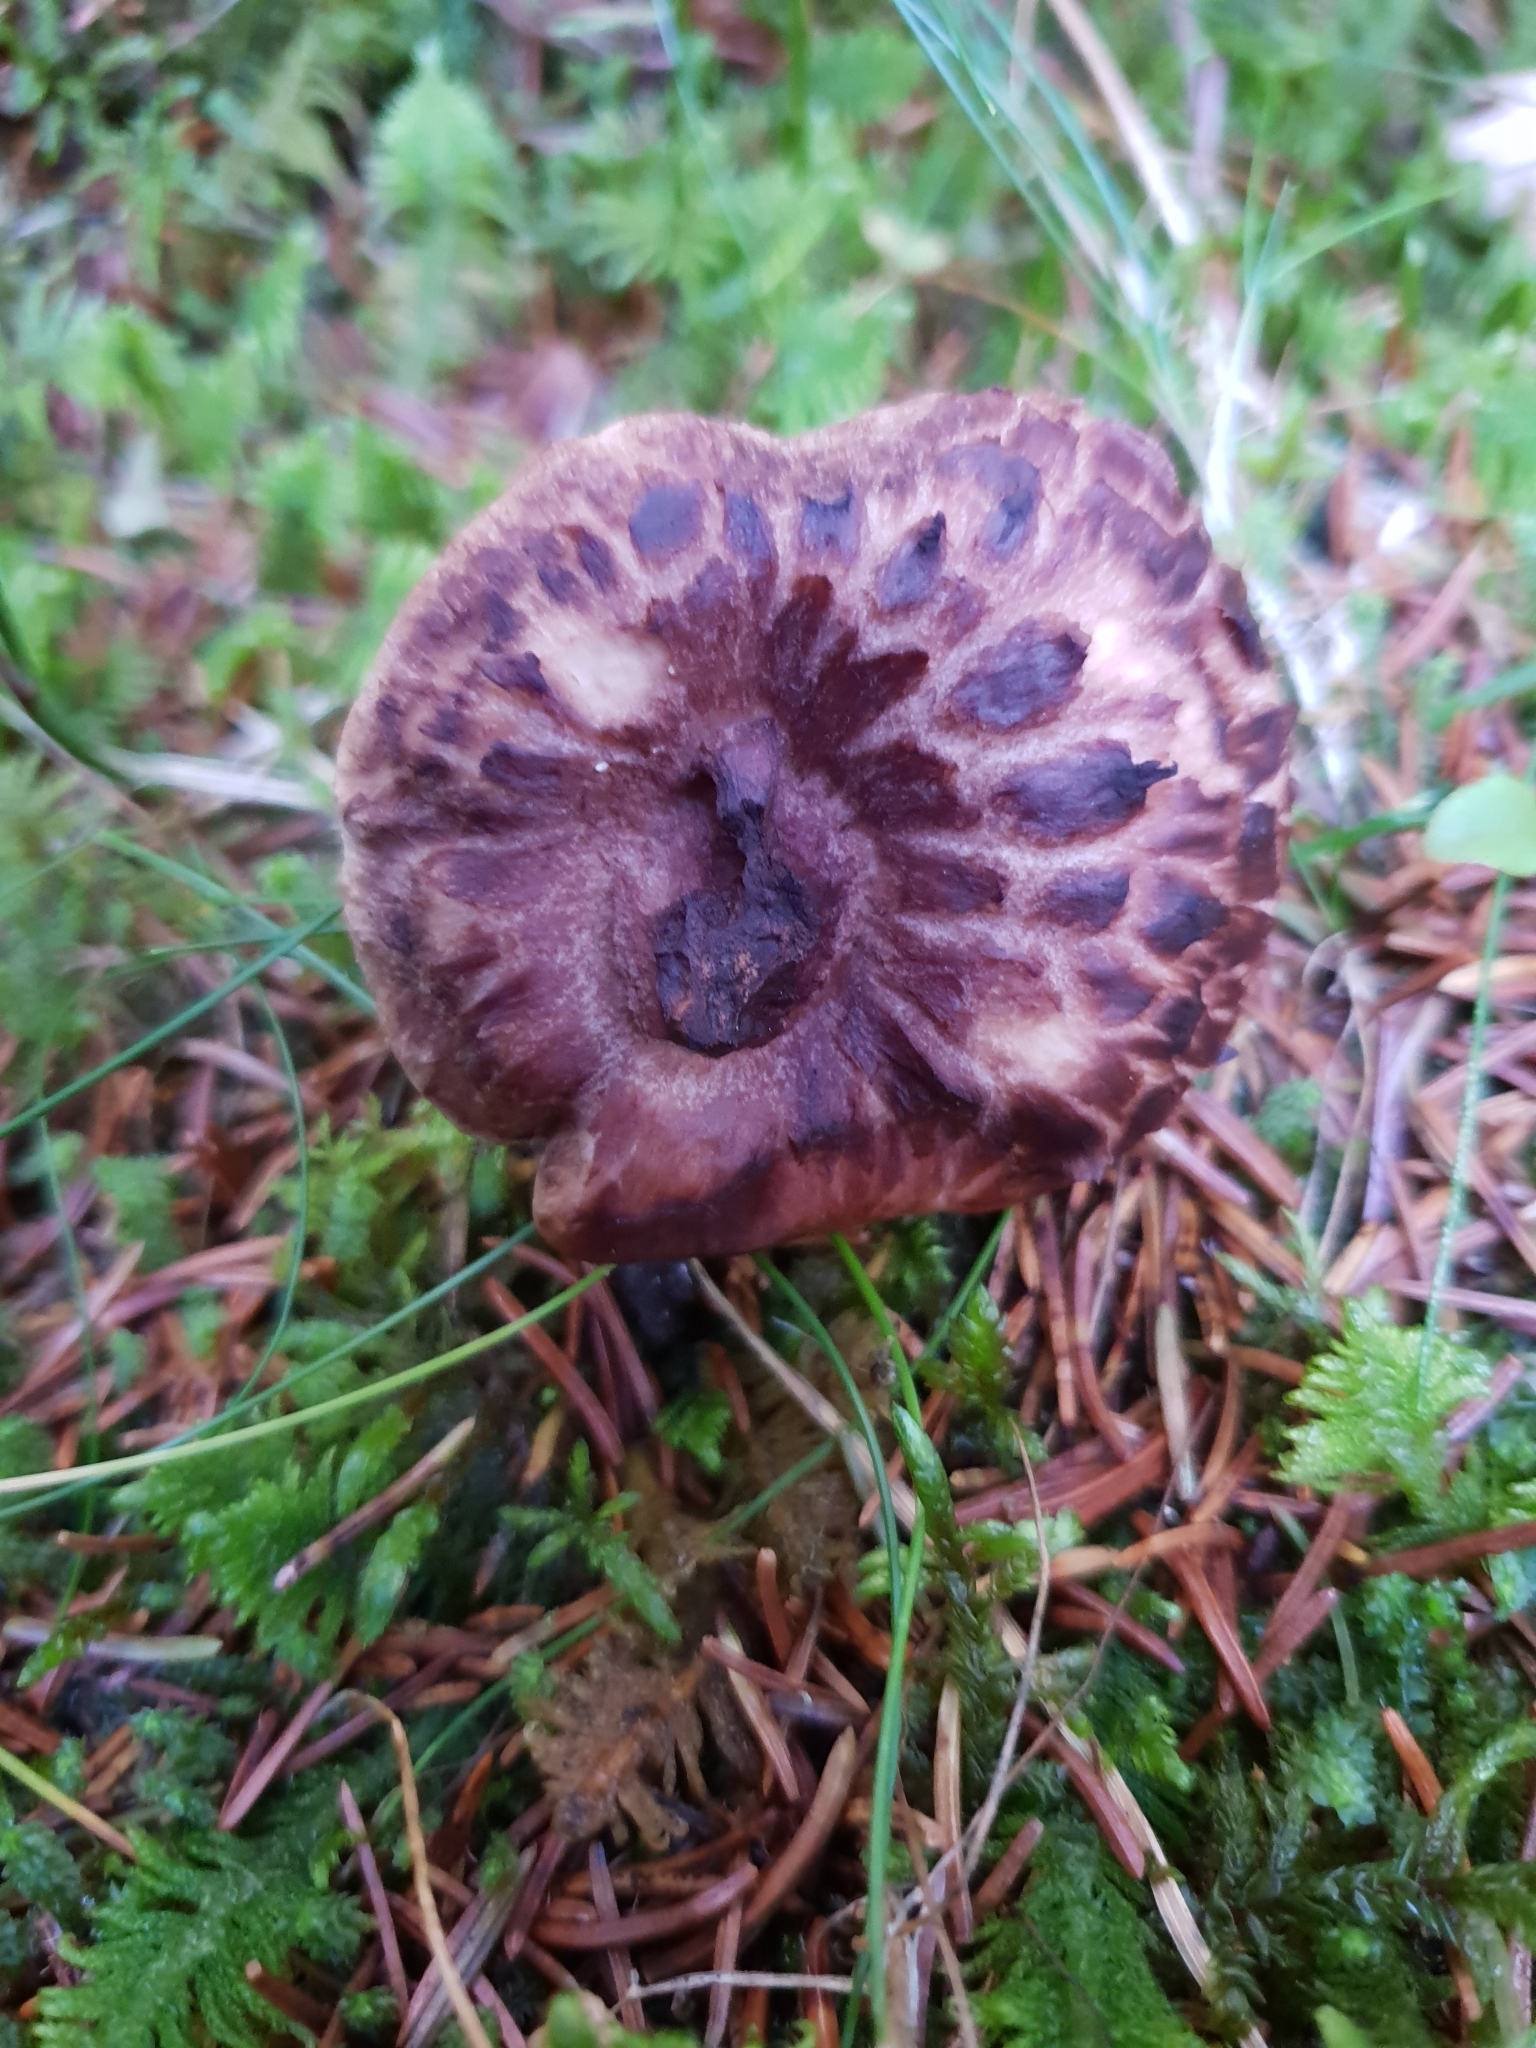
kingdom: Fungi
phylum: Basidiomycota
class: Agaricomycetes
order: Thelephorales
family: Bankeraceae
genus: Sarcodon
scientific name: Sarcodon imbricatus
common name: Shingled hedgehog
